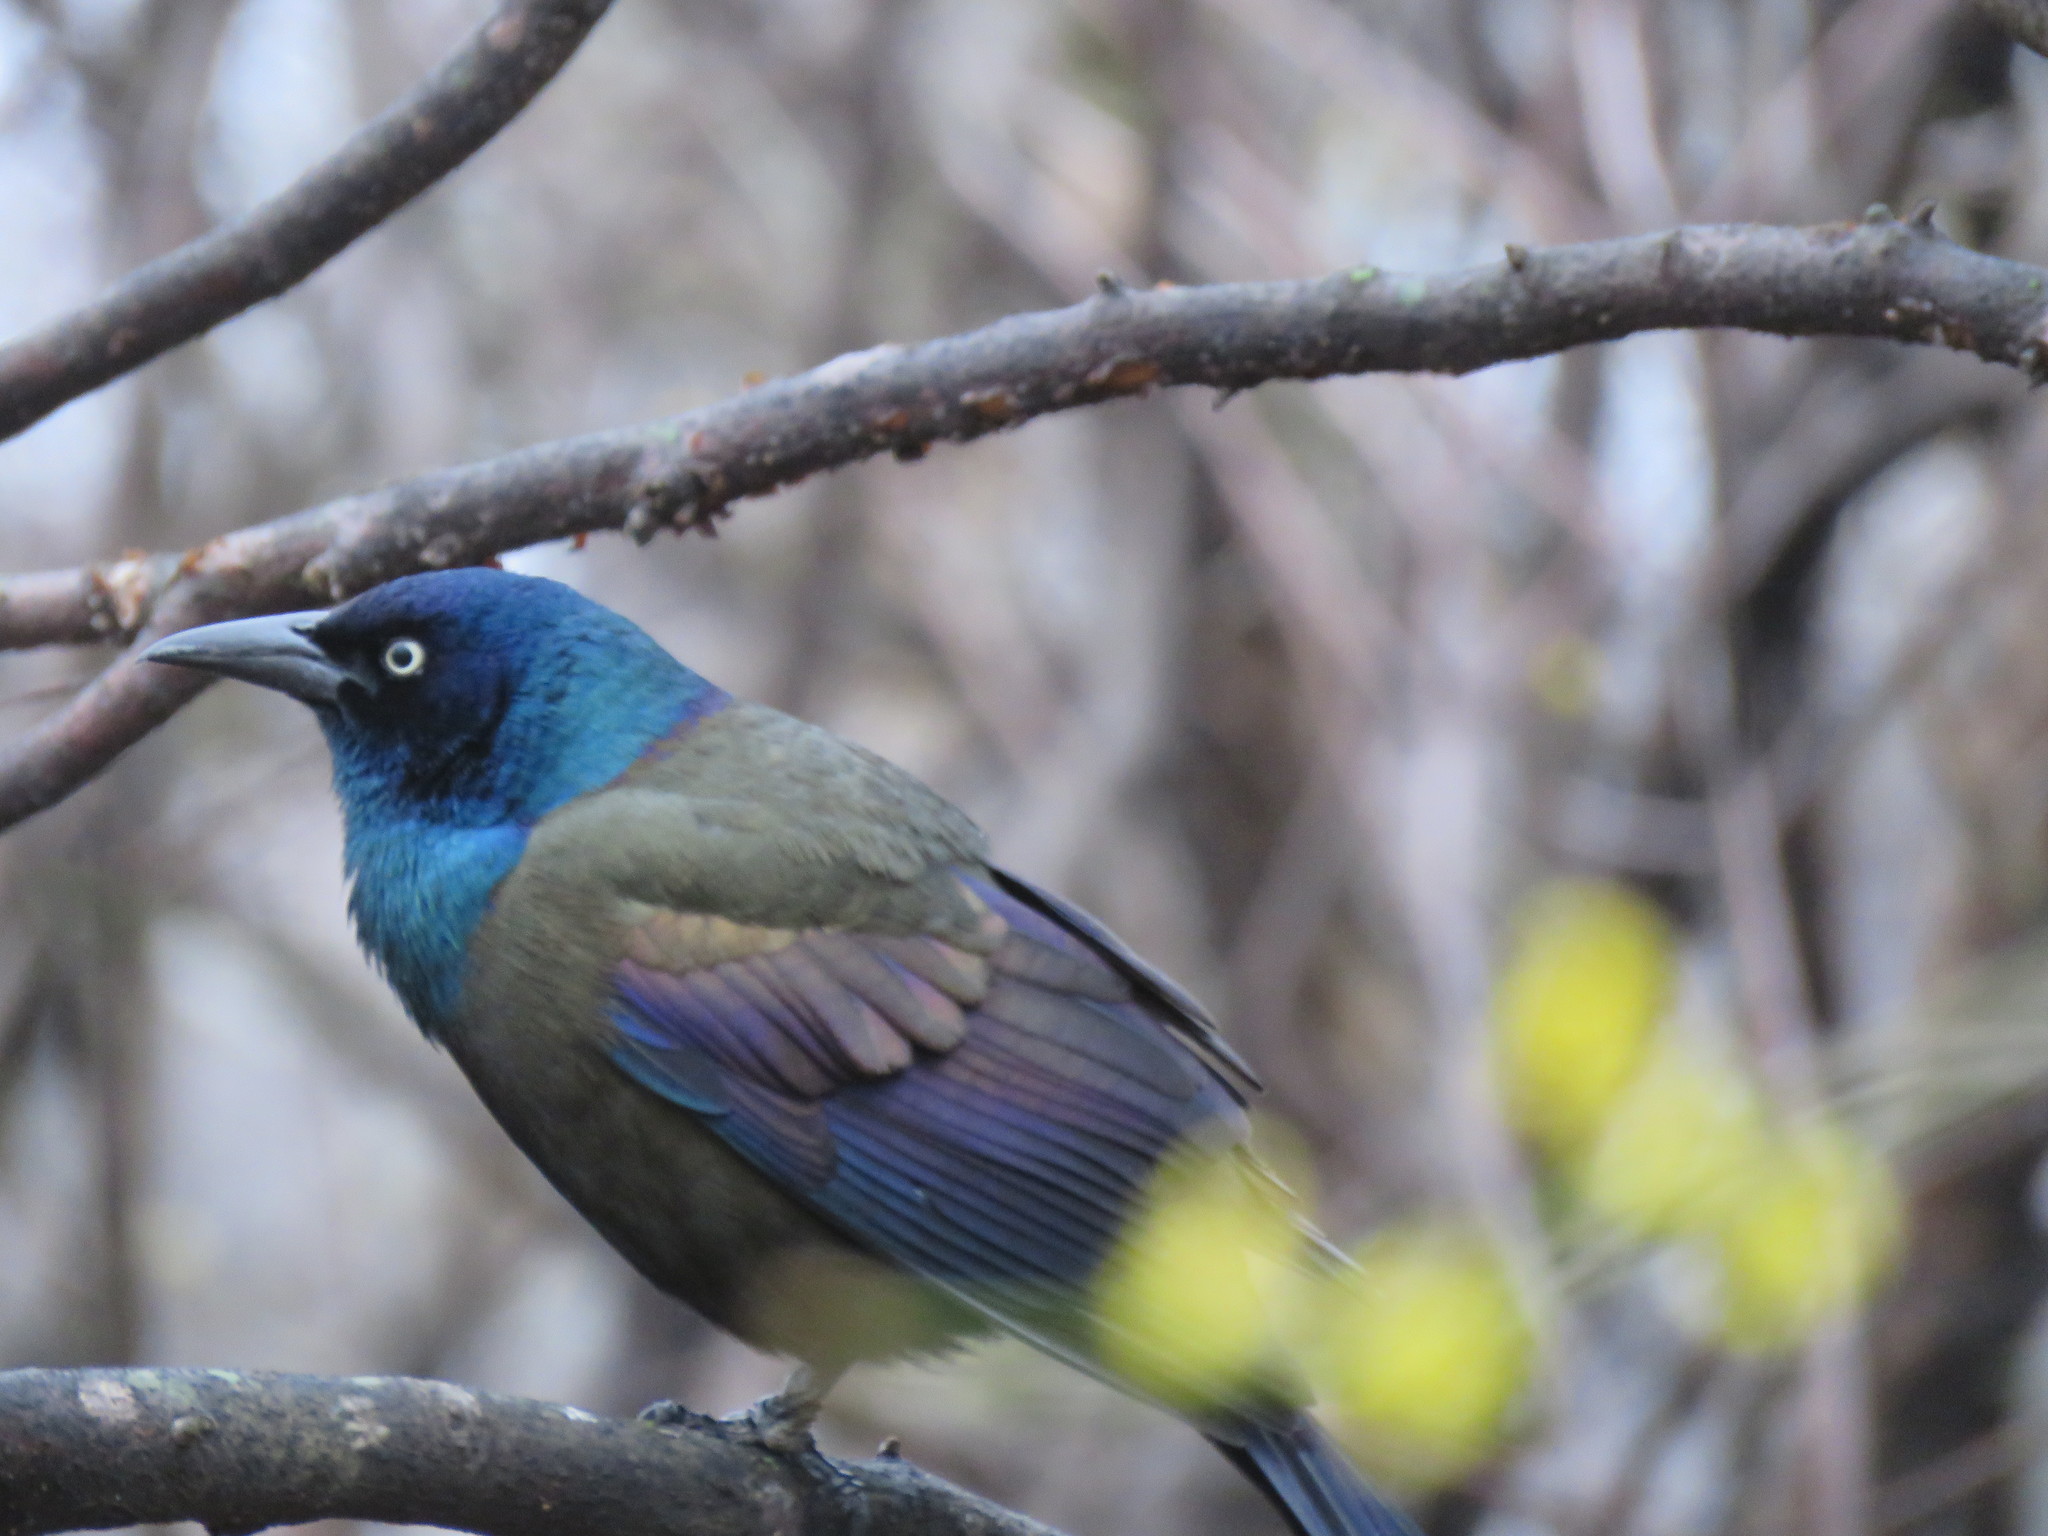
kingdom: Animalia
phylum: Chordata
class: Aves
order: Passeriformes
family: Icteridae
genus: Quiscalus
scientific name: Quiscalus quiscula
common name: Common grackle
